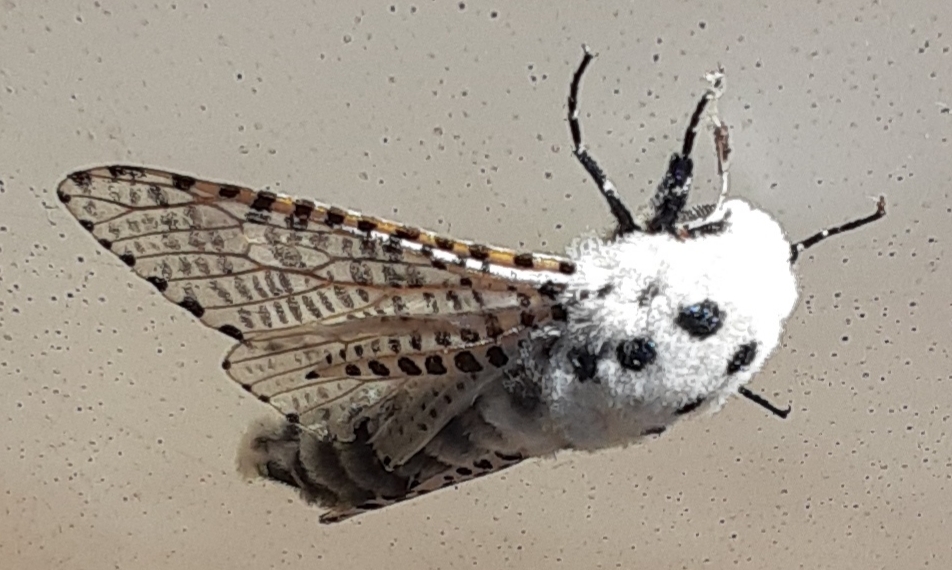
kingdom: Animalia
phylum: Arthropoda
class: Insecta
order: Lepidoptera
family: Cossidae
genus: Zeuzera
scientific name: Zeuzera pyrina
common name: Leopard moth
